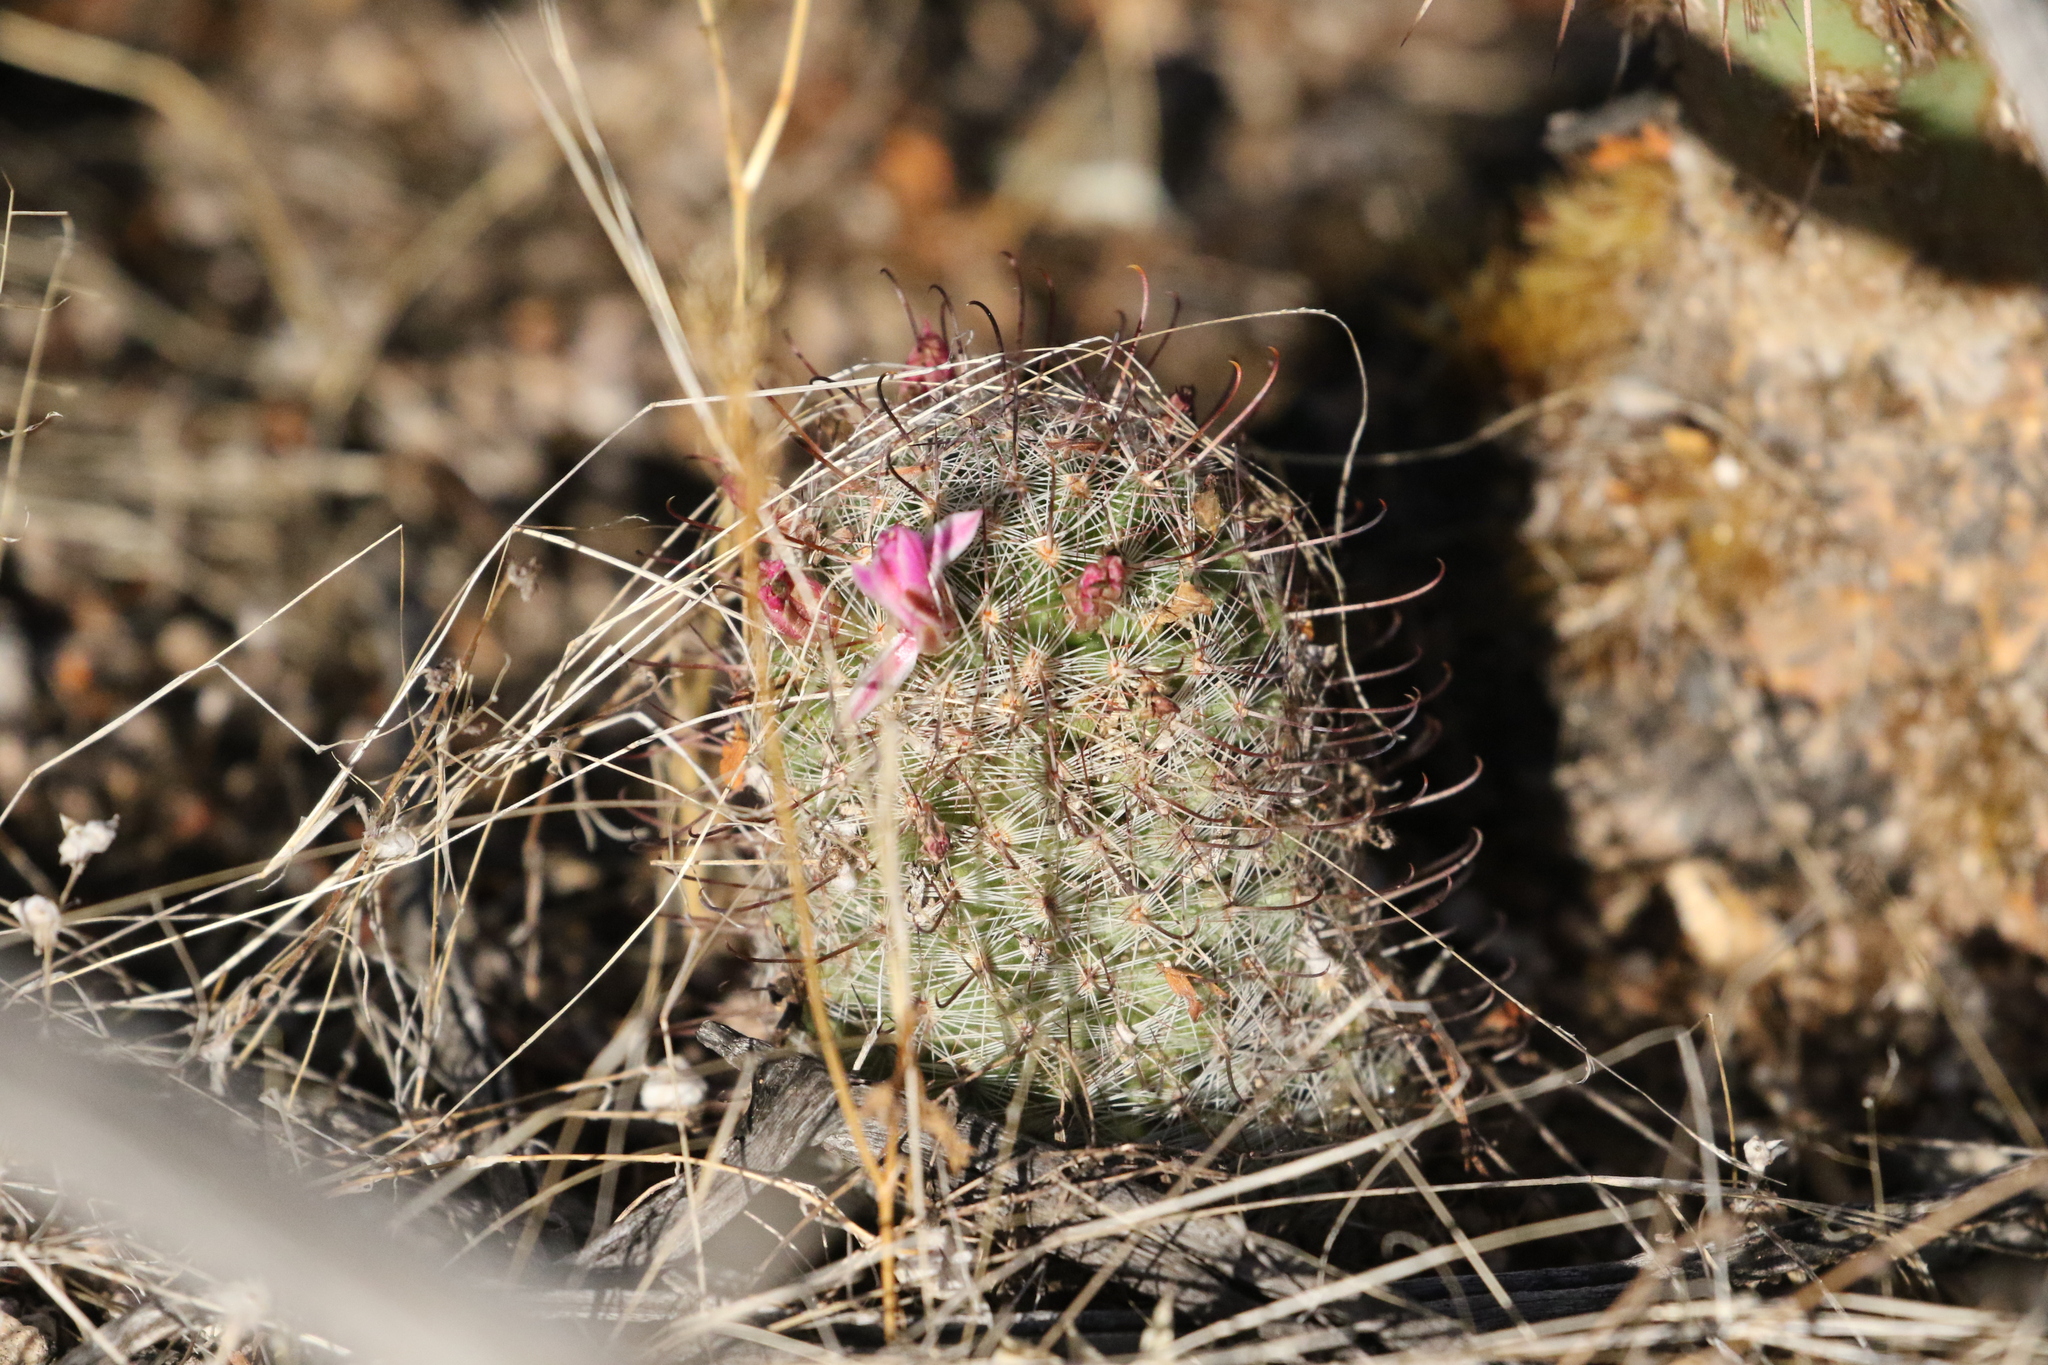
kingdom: Plantae
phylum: Tracheophyta
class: Magnoliopsida
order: Caryophyllales
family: Cactaceae
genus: Cochemiea
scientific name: Cochemiea grahamii
